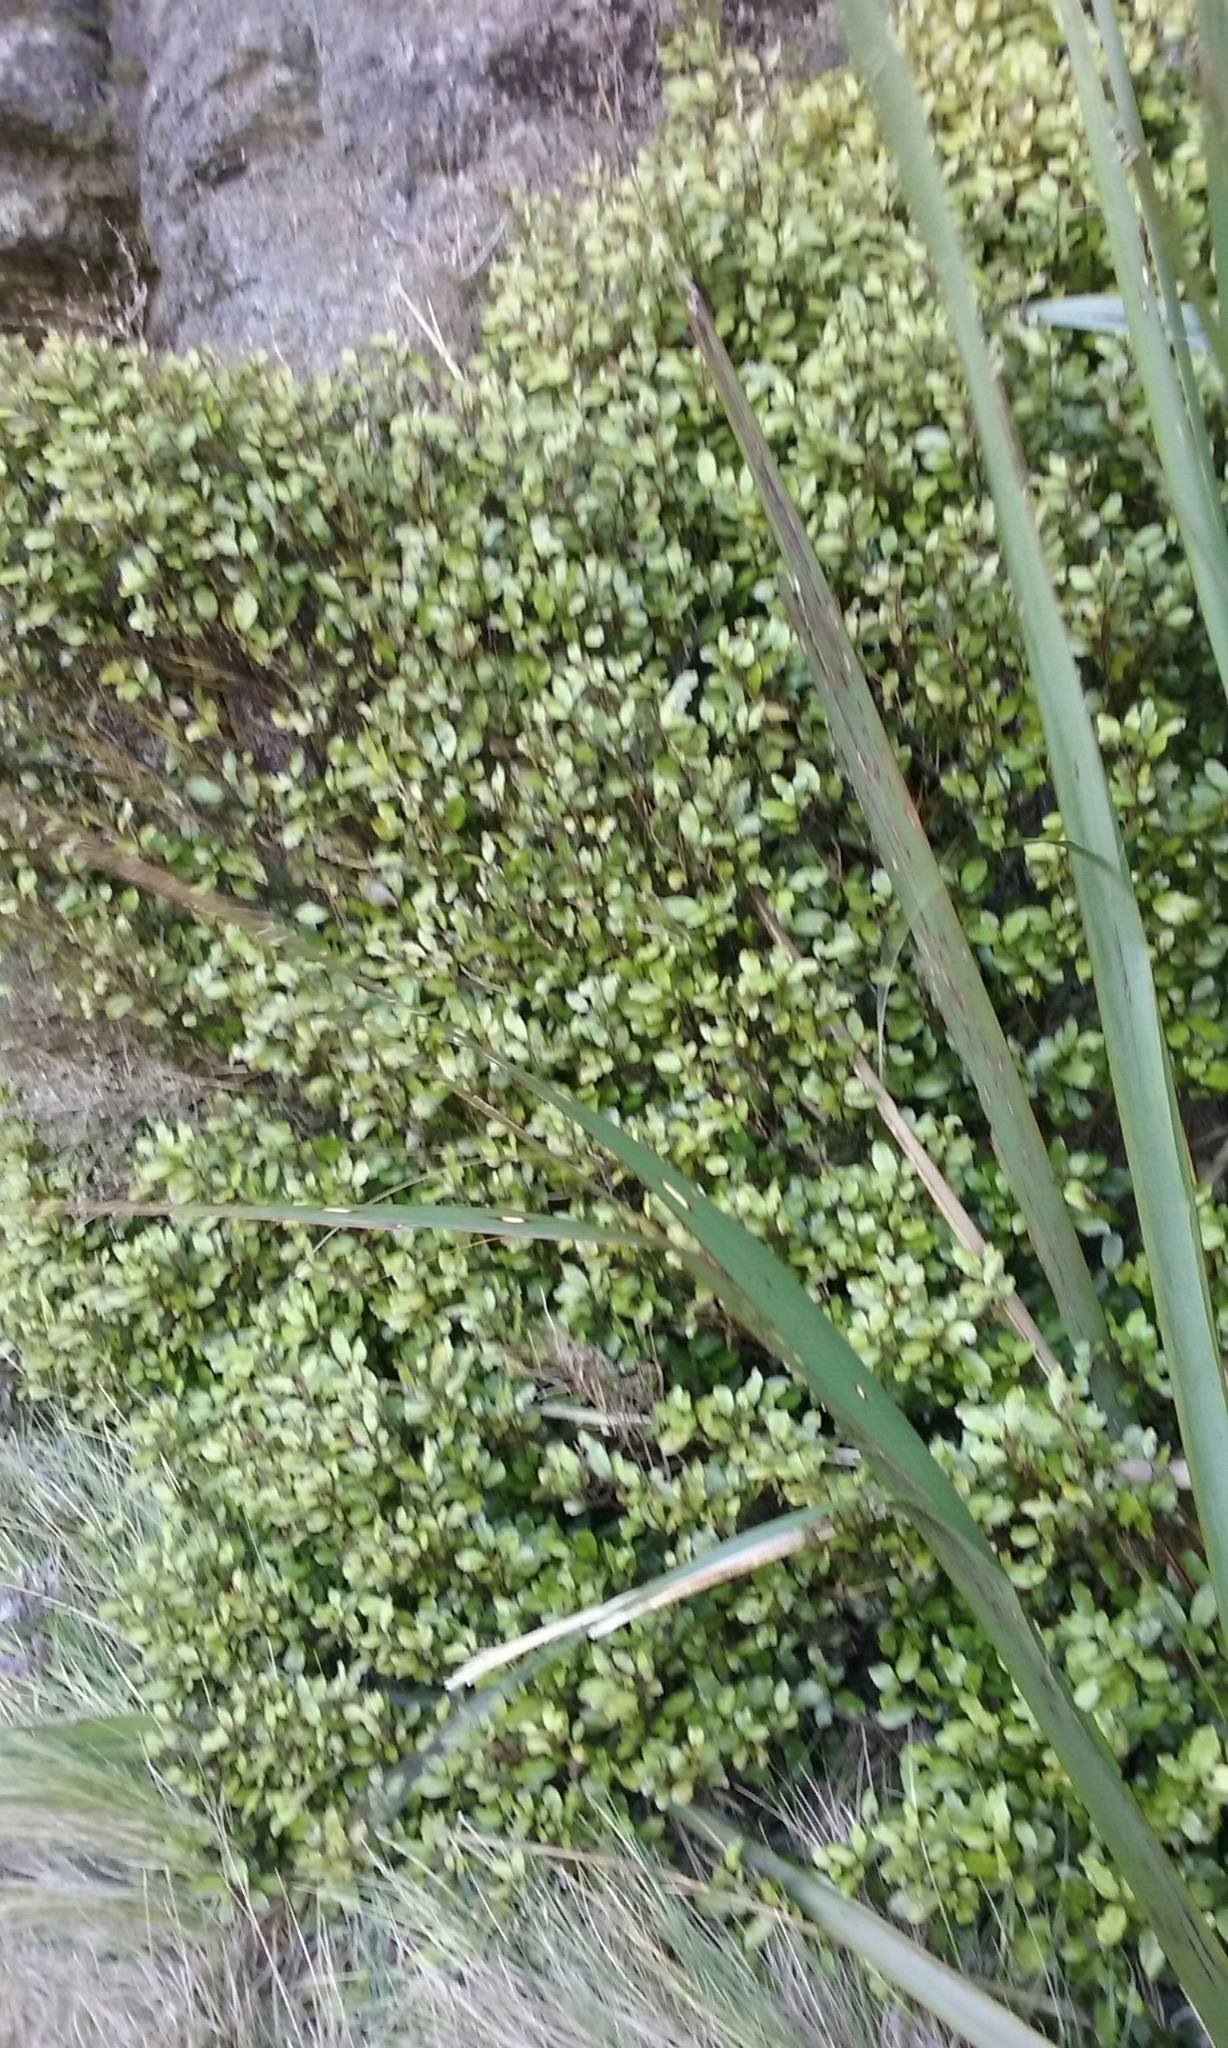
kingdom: Plantae
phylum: Tracheophyta
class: Magnoliopsida
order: Canellales
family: Winteraceae
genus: Pseudowintera
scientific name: Pseudowintera colorata
